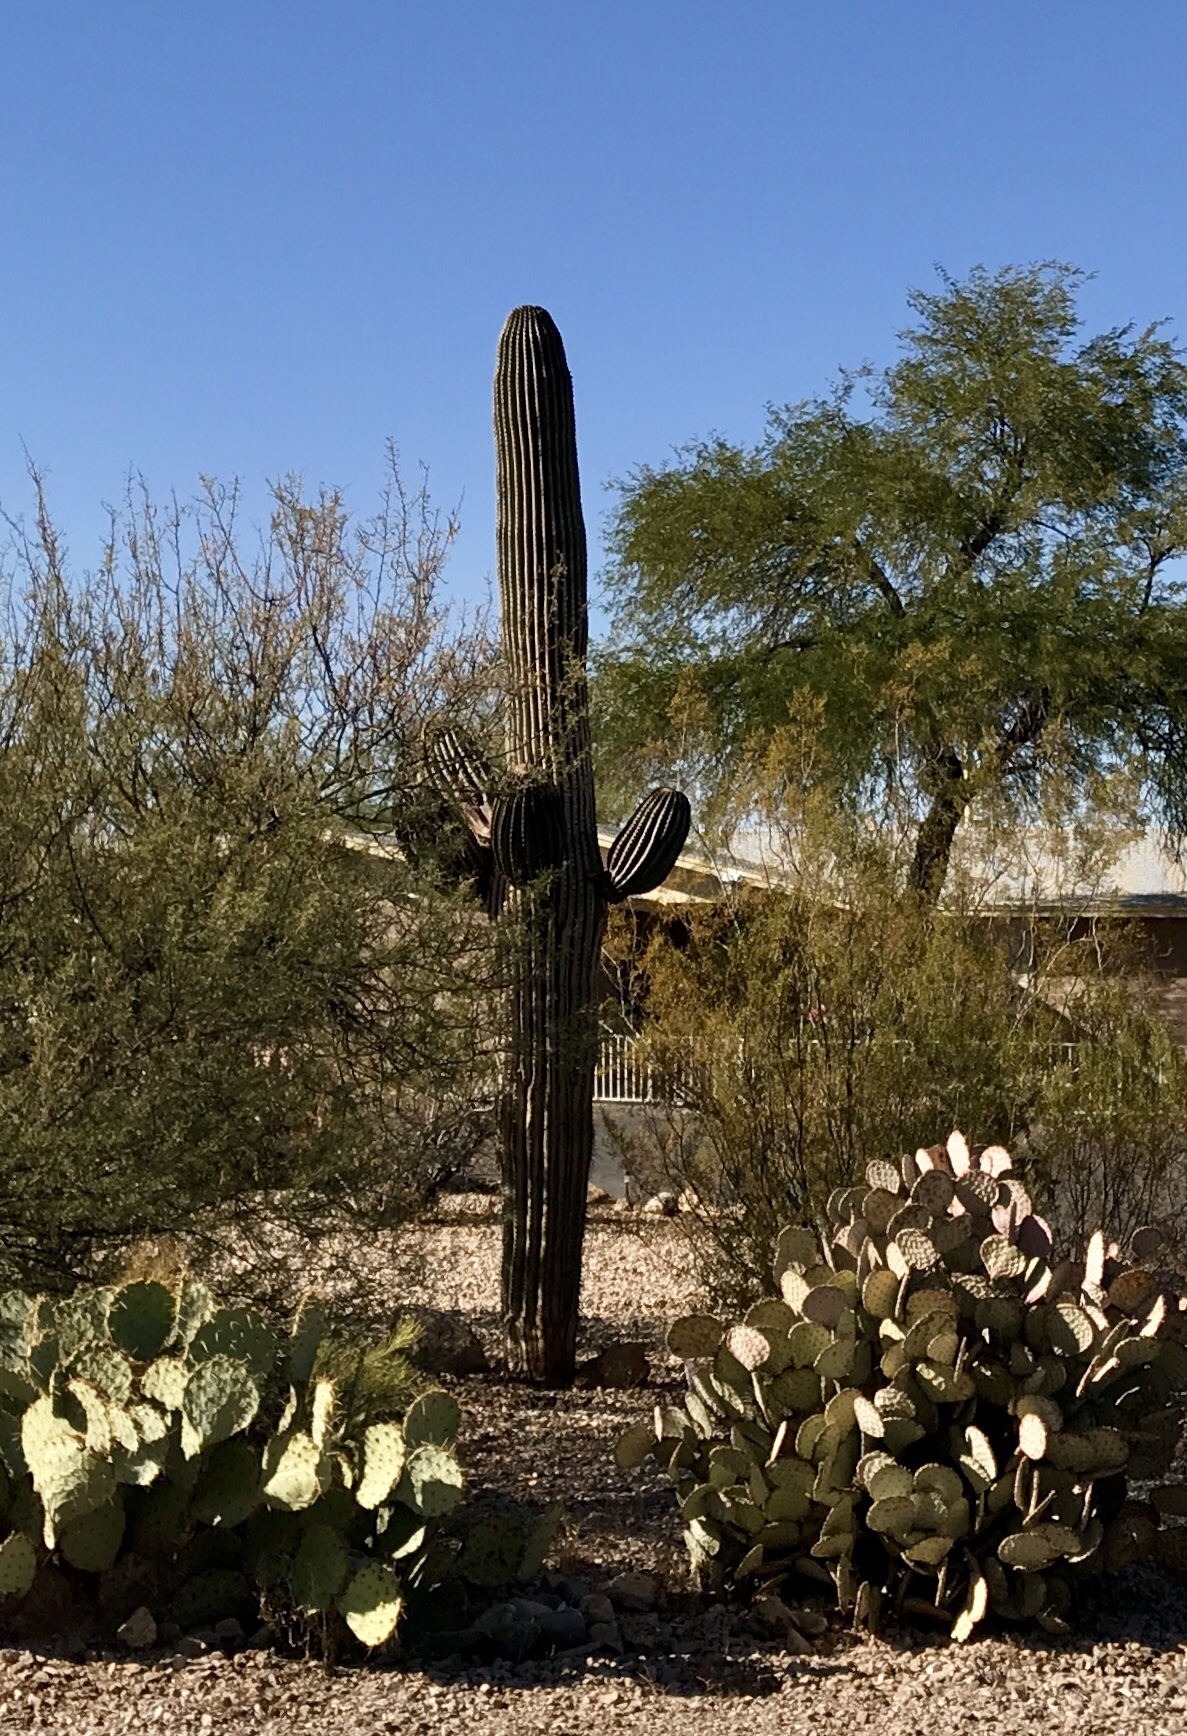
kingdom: Plantae
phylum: Tracheophyta
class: Magnoliopsida
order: Caryophyllales
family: Cactaceae
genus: Carnegiea
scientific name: Carnegiea gigantea
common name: Saguaro
